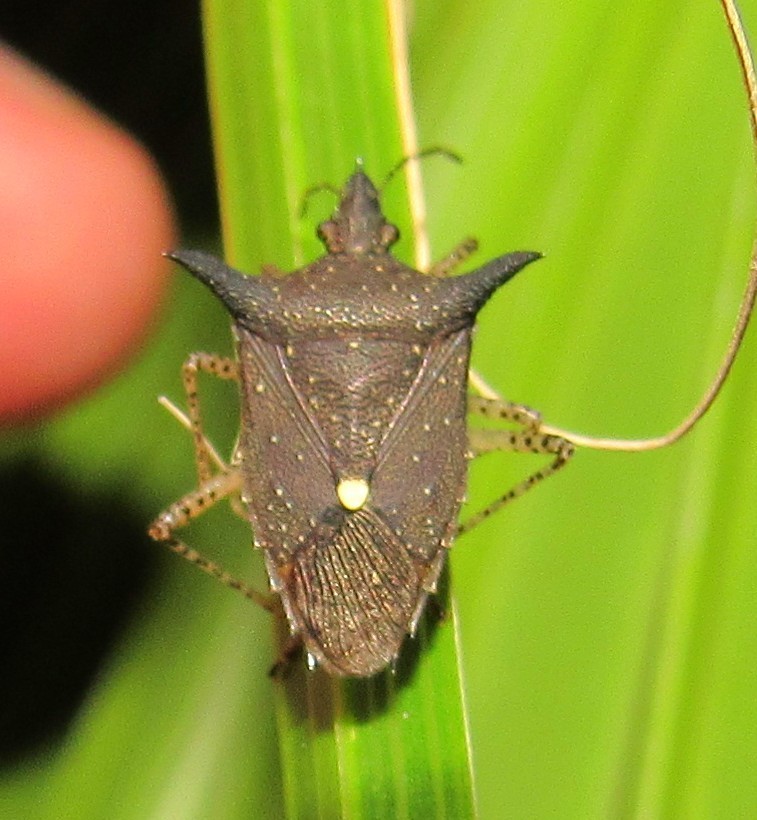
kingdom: Animalia
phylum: Arthropoda
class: Insecta
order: Hemiptera
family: Pentatomidae
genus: Proxys
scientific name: Proxys albopunctulatus
